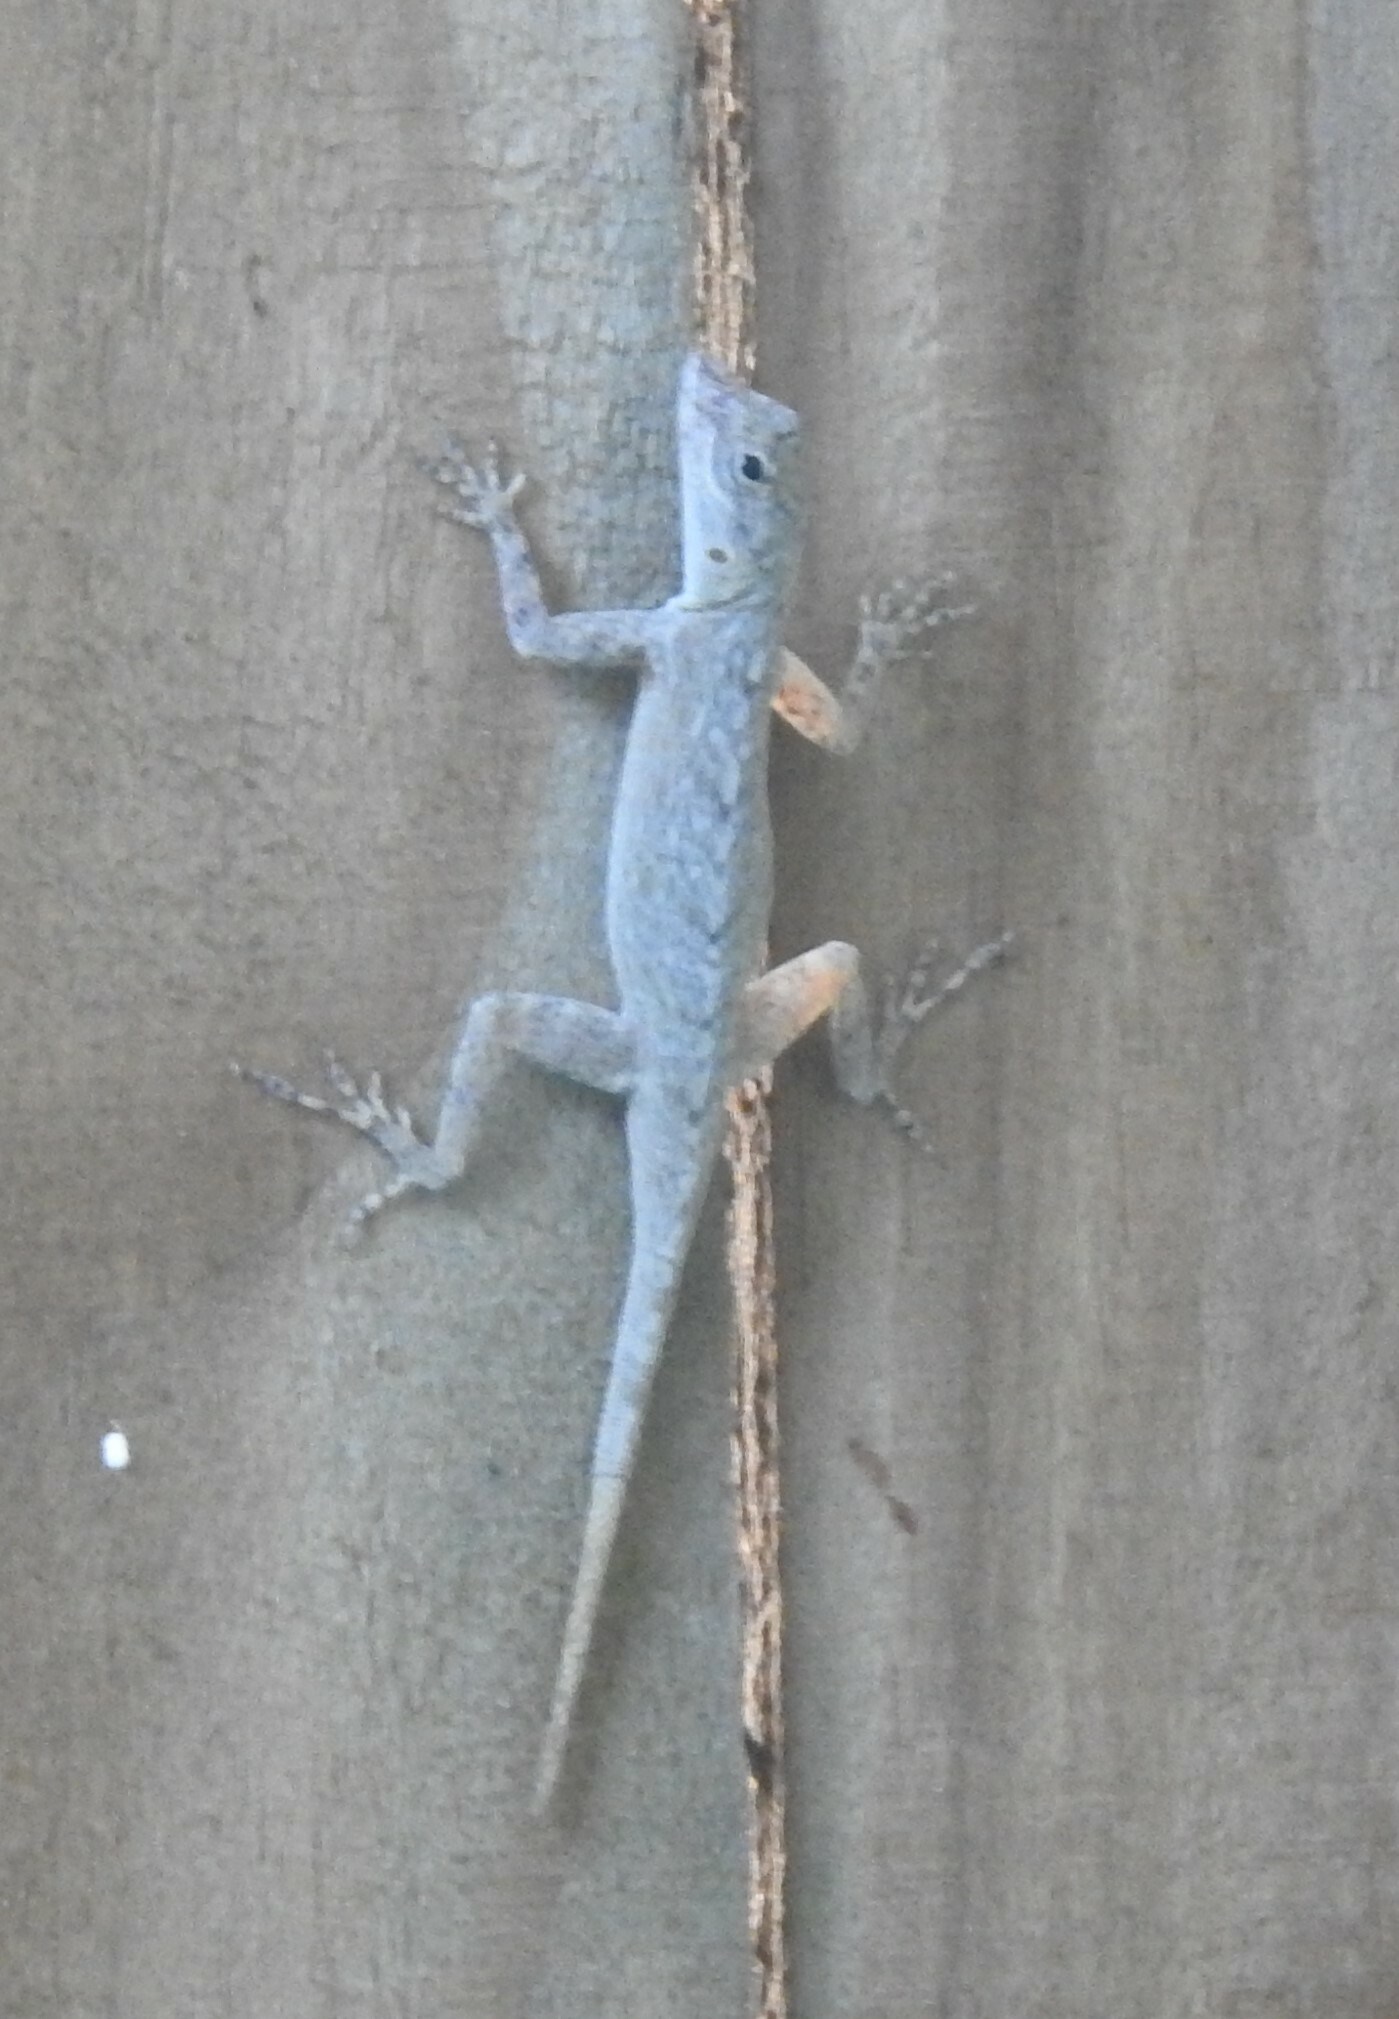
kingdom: Animalia
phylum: Chordata
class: Squamata
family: Dactyloidae
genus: Anolis
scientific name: Anolis distichus
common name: Bark anole
